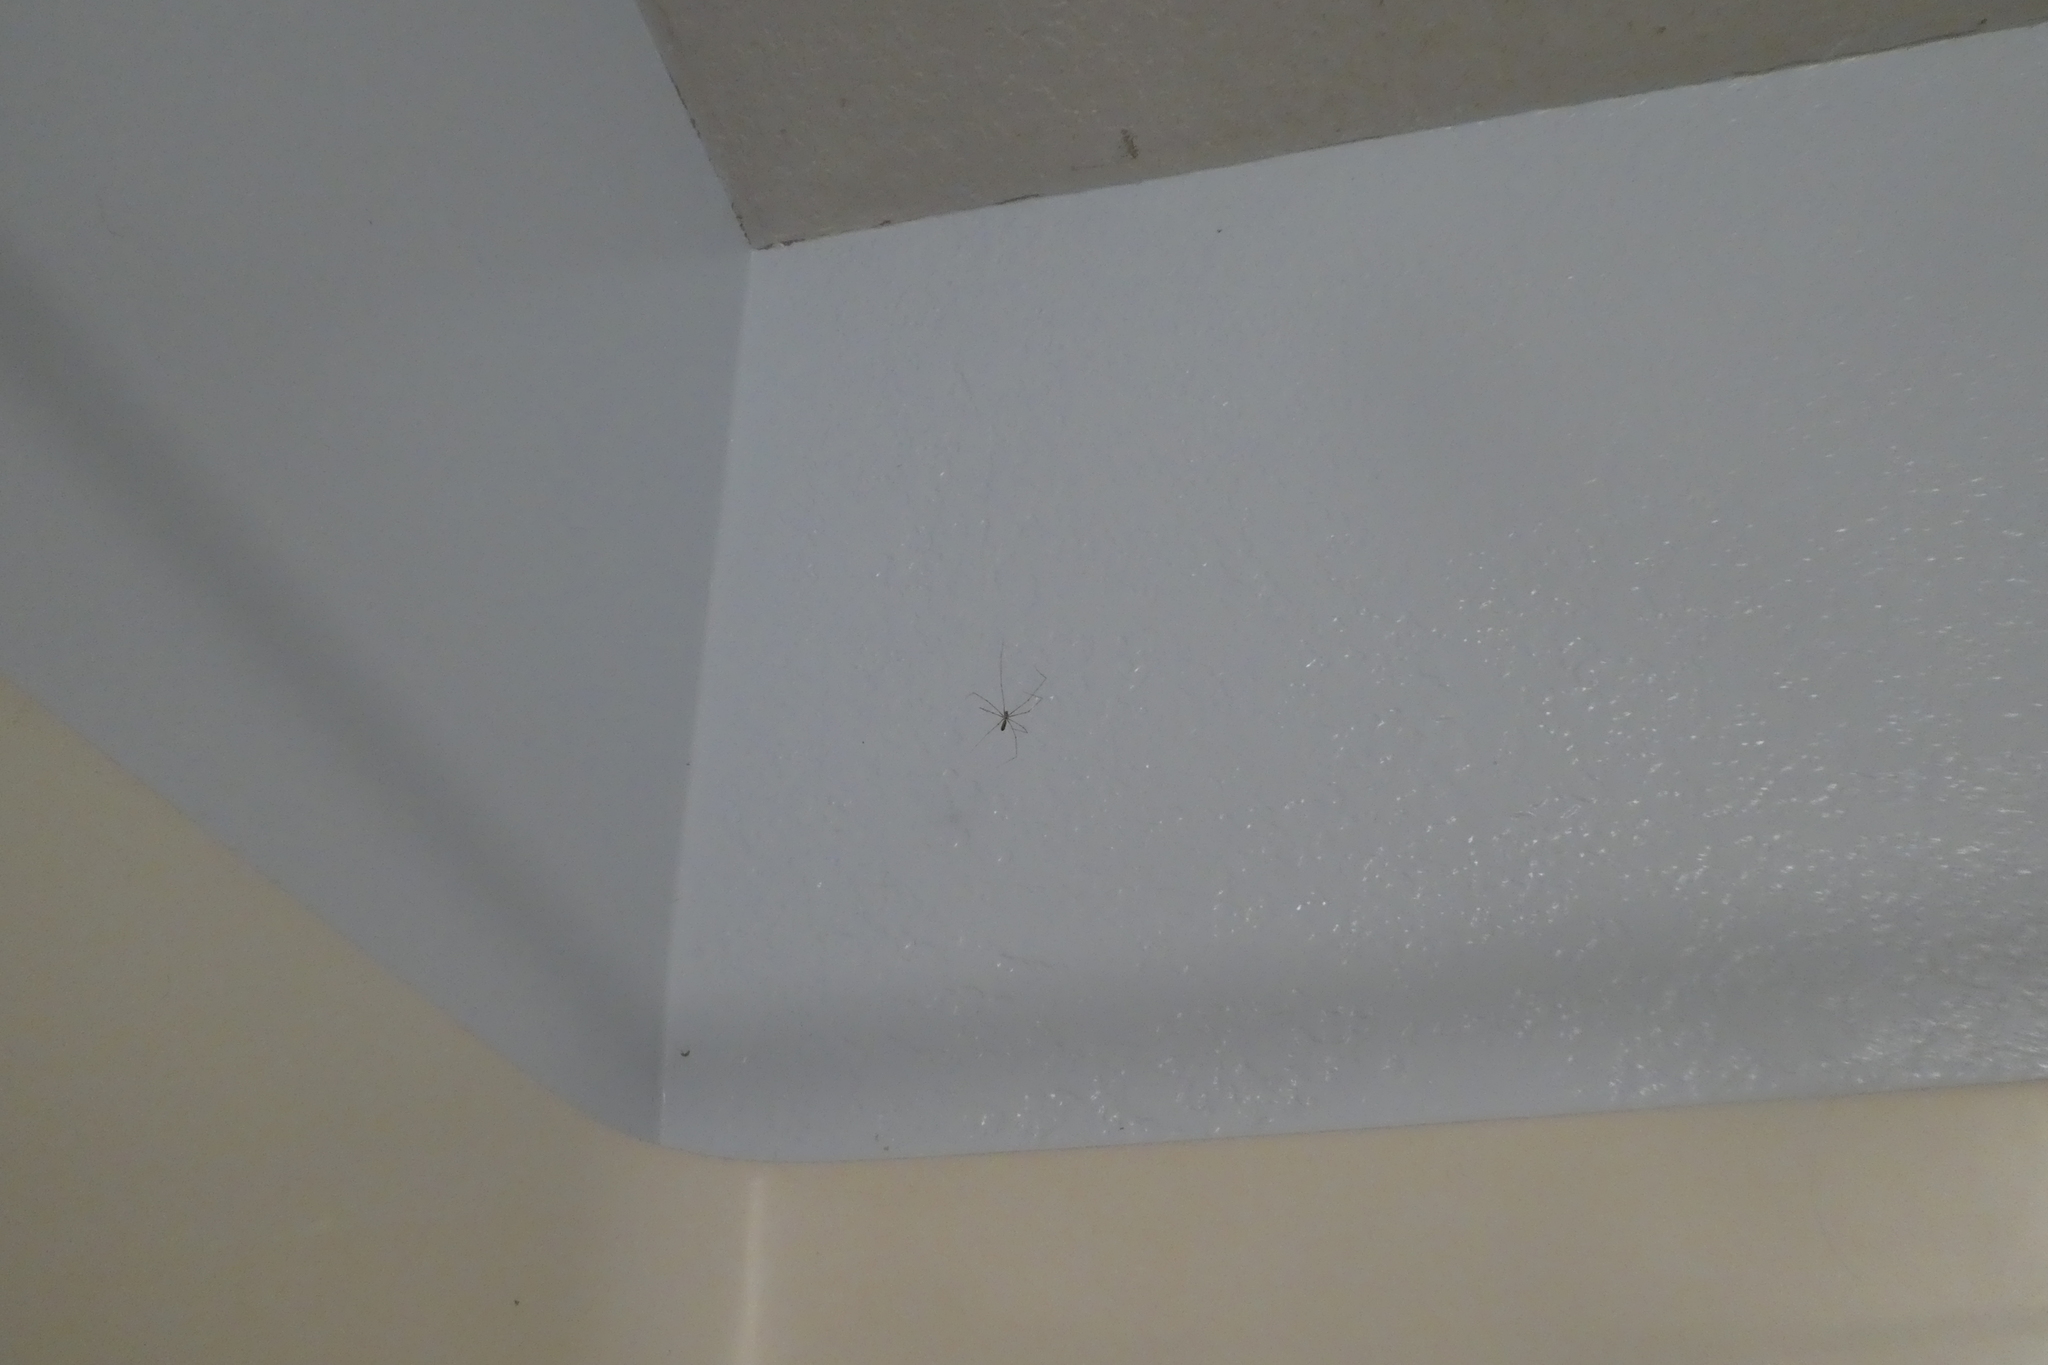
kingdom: Animalia
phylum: Arthropoda
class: Arachnida
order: Araneae
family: Pholcidae
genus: Pholcus
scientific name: Pholcus phalangioides
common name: Longbodied cellar spider
